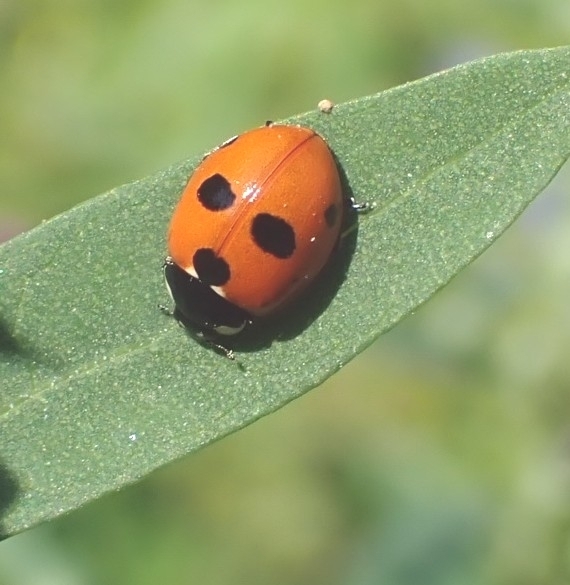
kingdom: Animalia
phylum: Arthropoda
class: Insecta
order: Coleoptera
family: Coccinellidae
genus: Coccinella
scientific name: Coccinella quinquepunctata
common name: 5-spot ladybird
